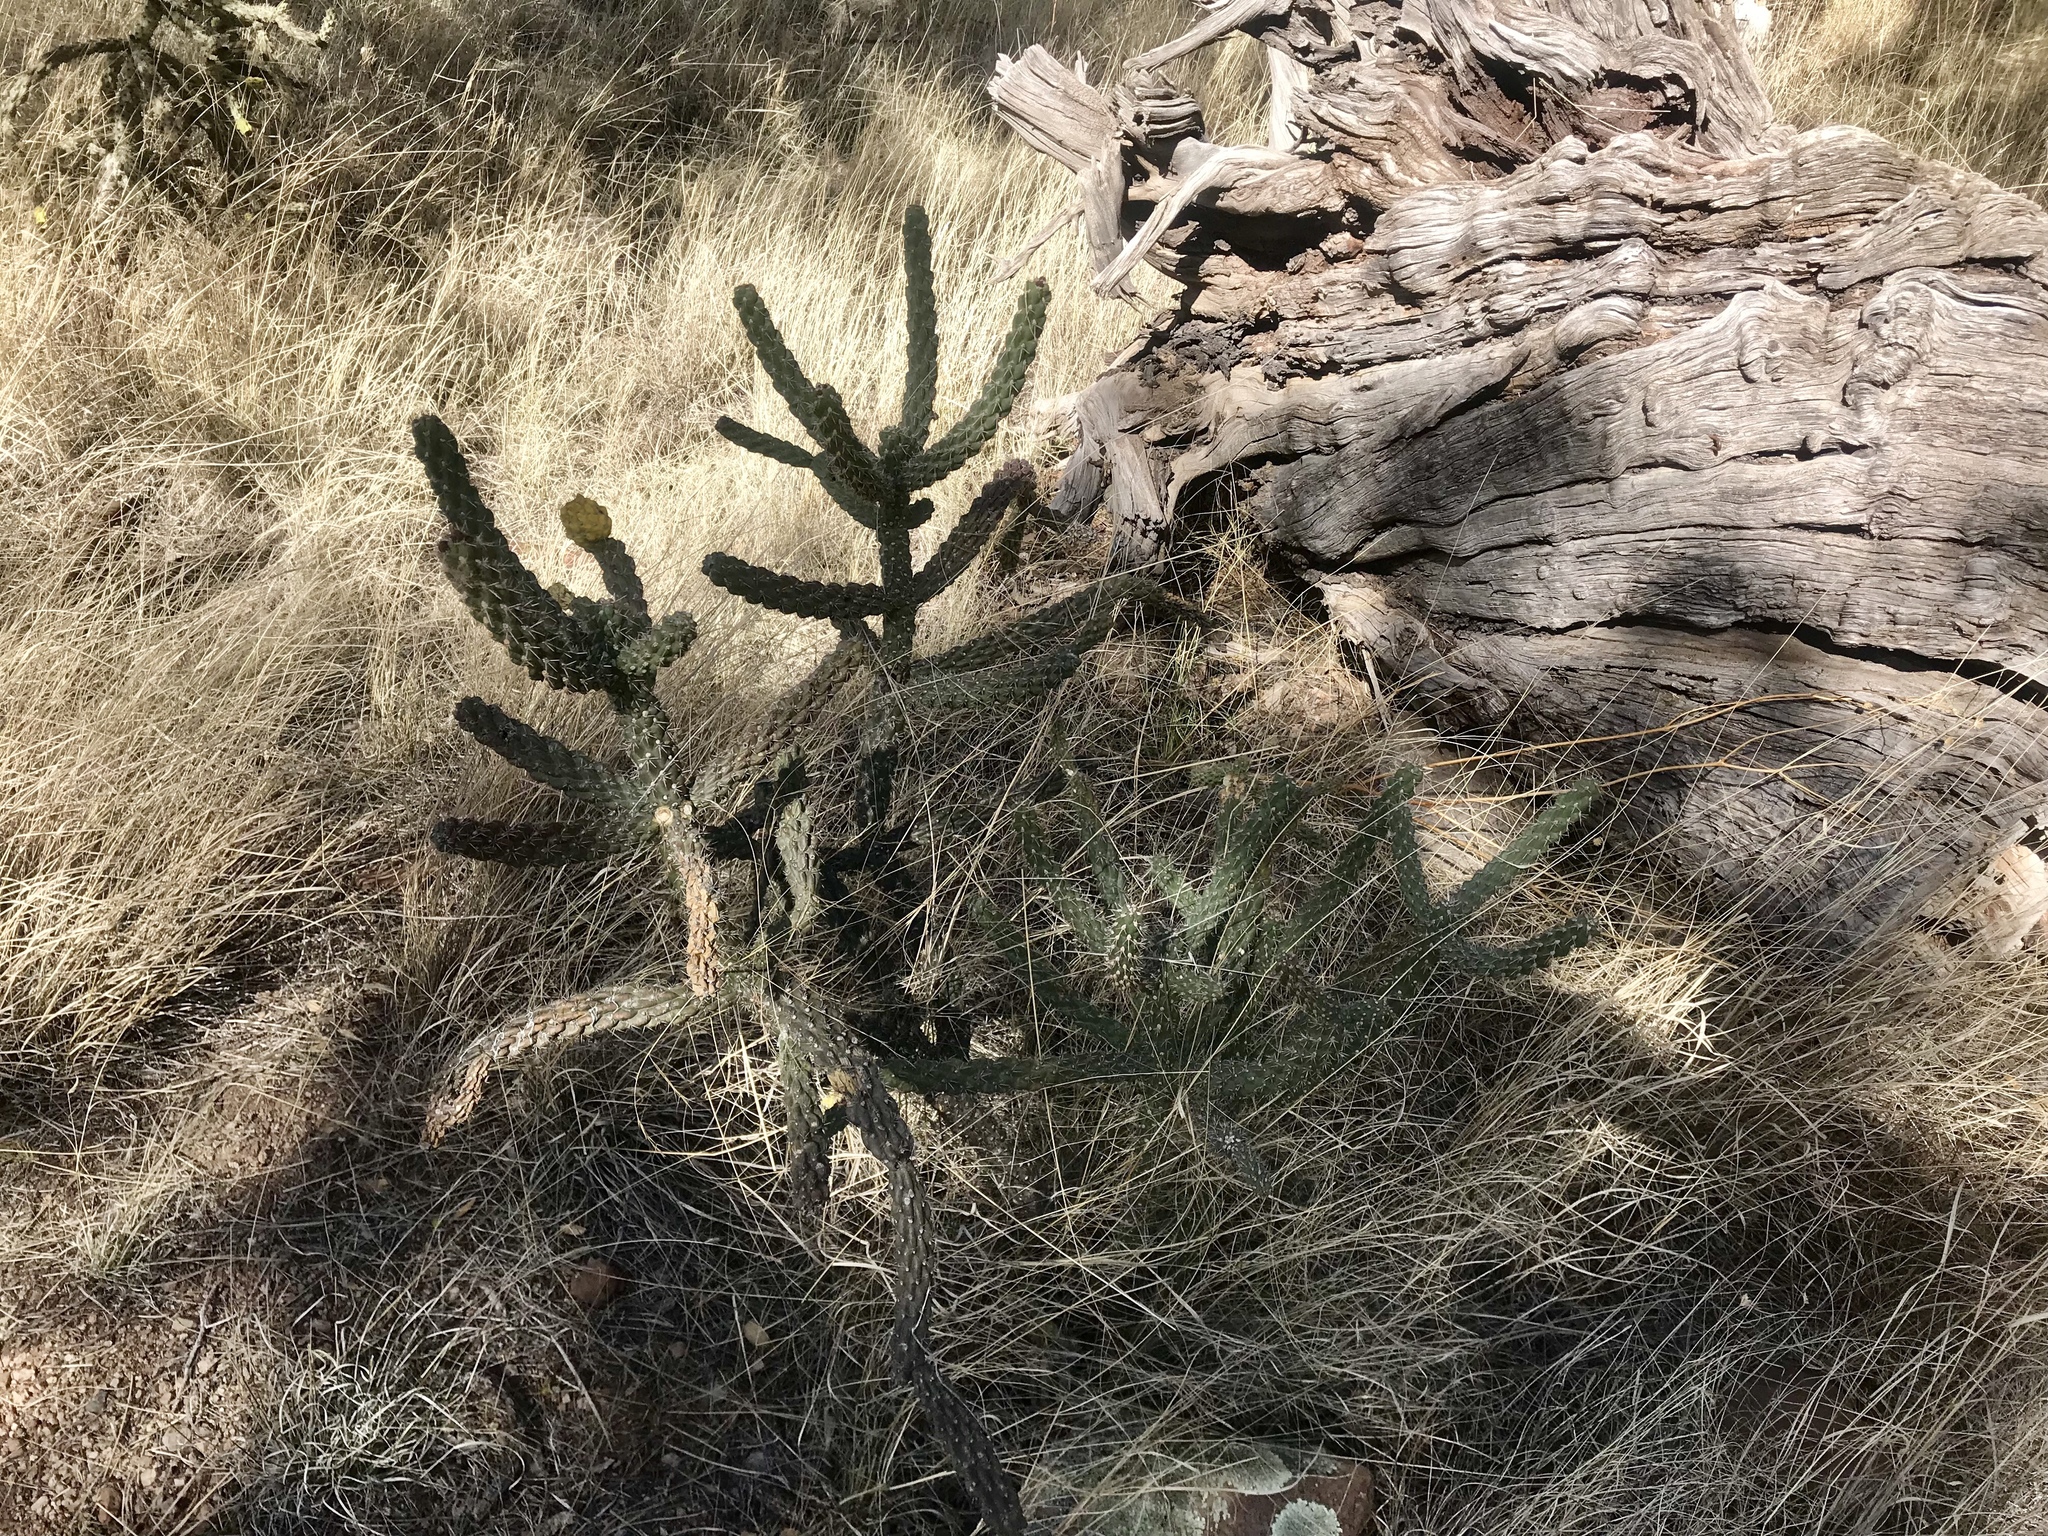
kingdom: Plantae
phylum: Tracheophyta
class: Magnoliopsida
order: Caryophyllales
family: Cactaceae
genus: Cylindropuntia
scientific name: Cylindropuntia imbricata
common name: Candelabrum cactus
